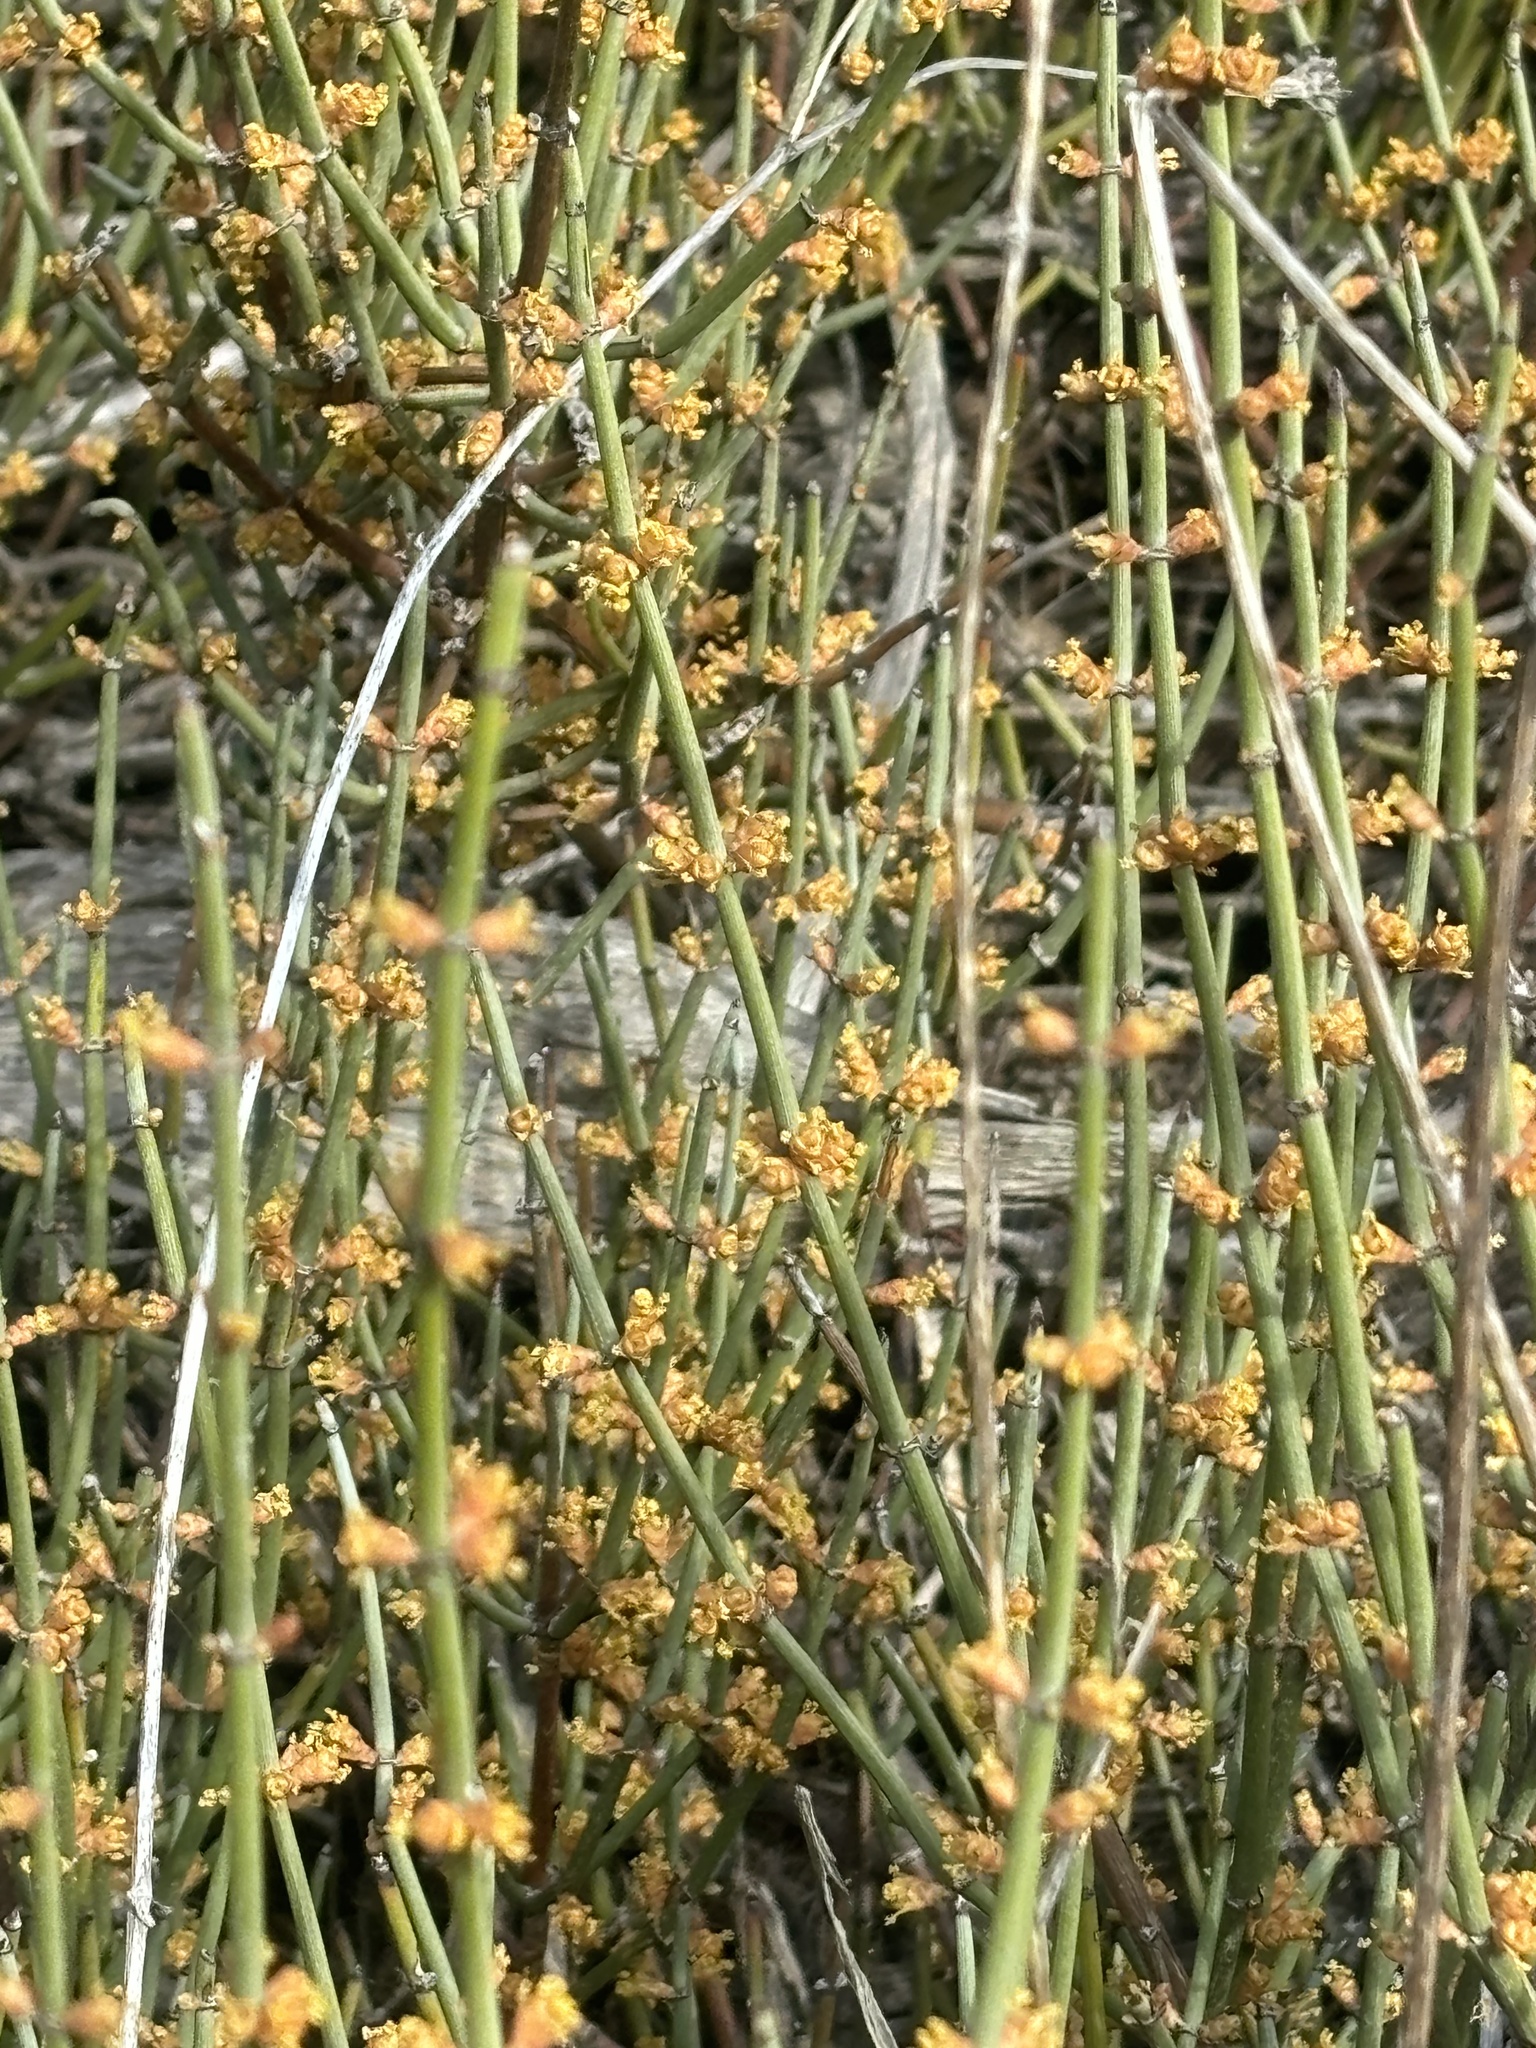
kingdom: Plantae
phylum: Tracheophyta
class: Gnetopsida
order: Ephedrales
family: Ephedraceae
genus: Ephedra
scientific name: Ephedra californica
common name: California ephedra
